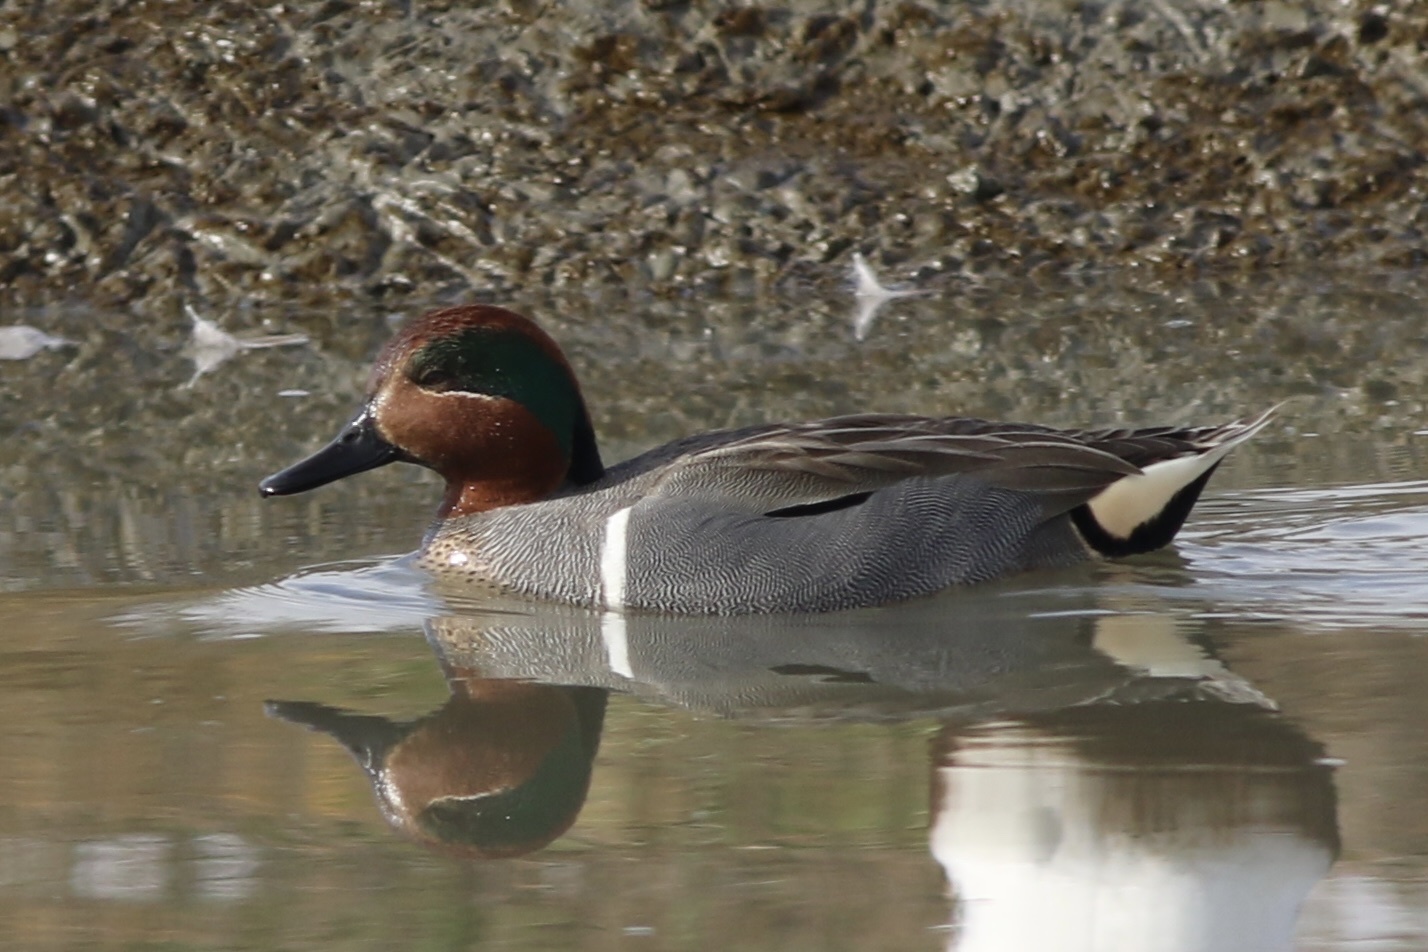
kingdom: Animalia
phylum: Chordata
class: Aves
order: Anseriformes
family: Anatidae
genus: Anas
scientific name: Anas crecca
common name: Eurasian teal
